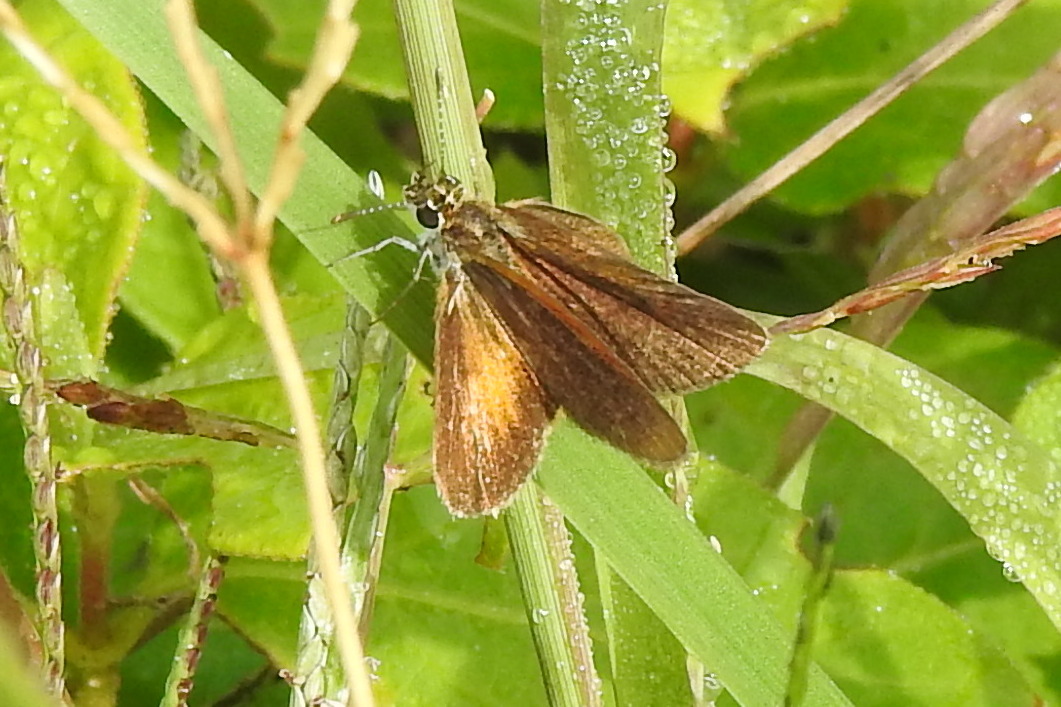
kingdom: Animalia
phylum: Arthropoda
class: Insecta
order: Lepidoptera
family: Hesperiidae
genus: Ancyloxypha
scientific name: Ancyloxypha numitor
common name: Least skipper
